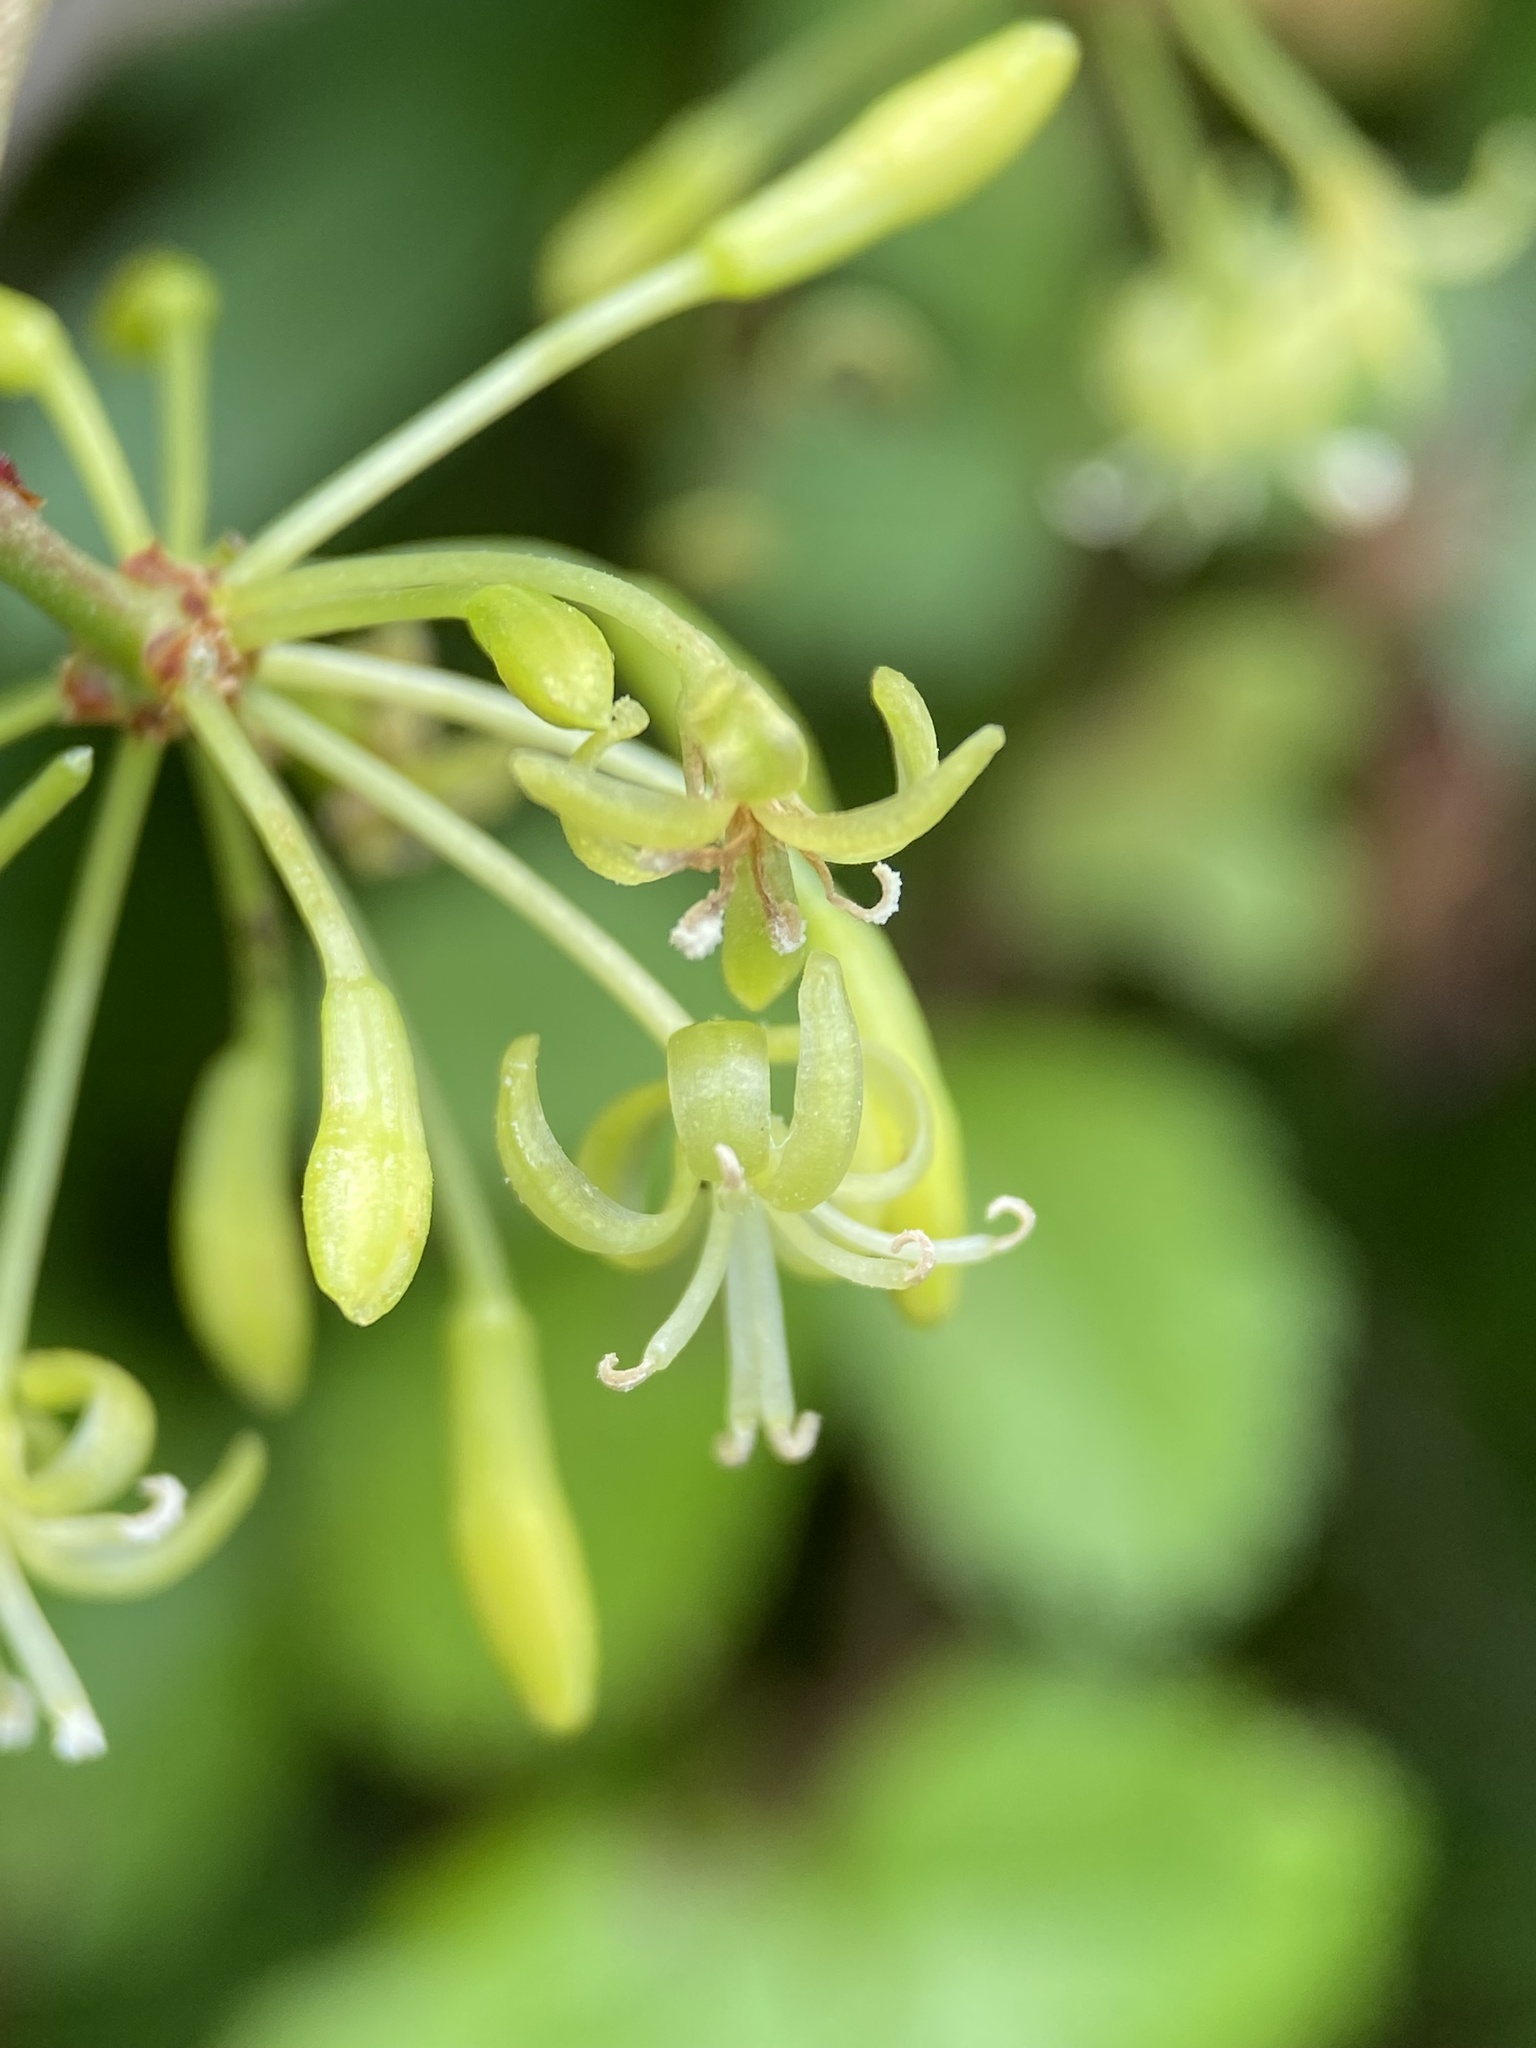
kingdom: Plantae
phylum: Tracheophyta
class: Liliopsida
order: Liliales
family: Smilacaceae
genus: Smilax
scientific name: Smilax auriculata
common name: Wild bamboo
